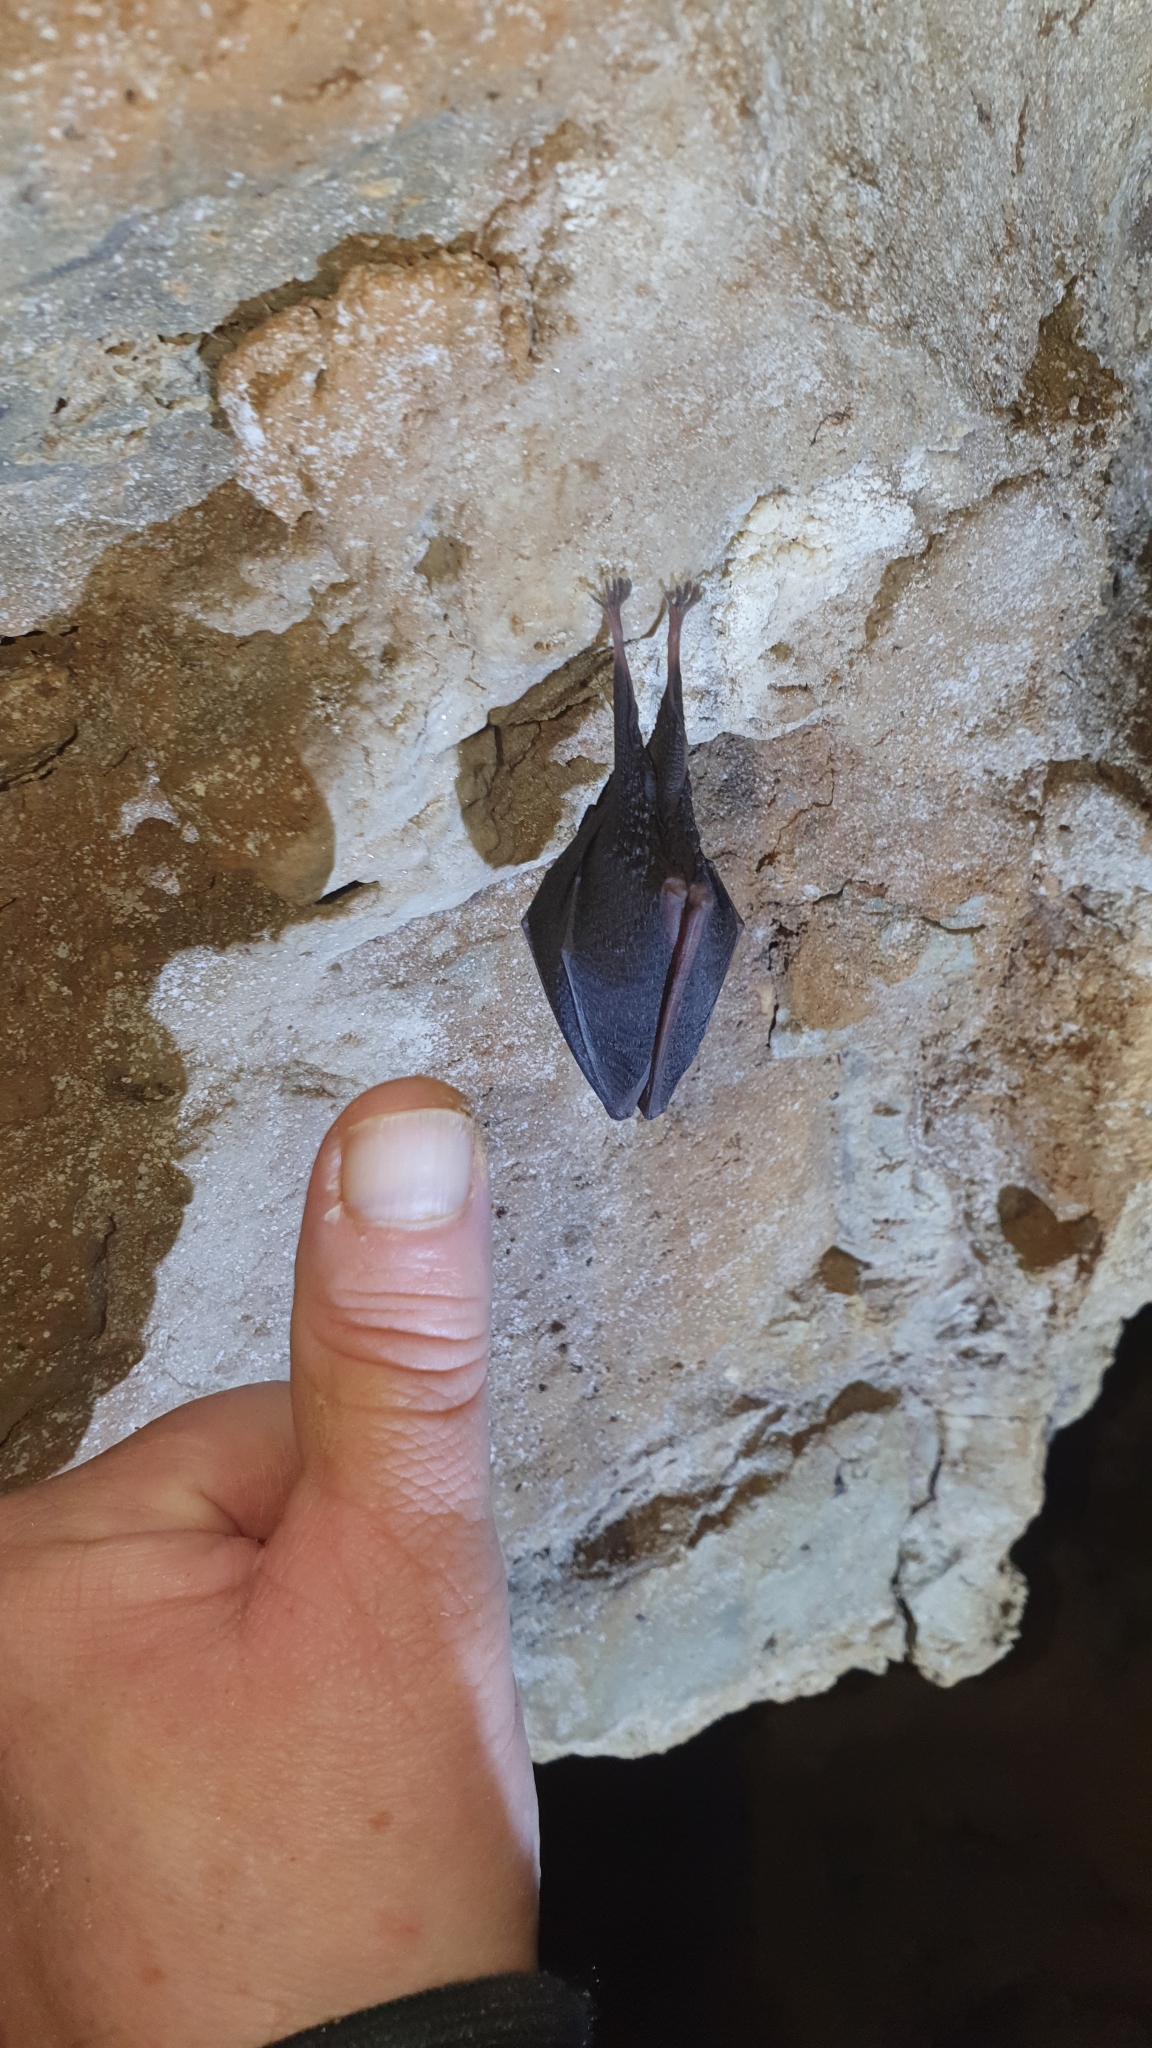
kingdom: Animalia
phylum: Chordata
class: Mammalia
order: Chiroptera
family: Rhinolophidae
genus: Rhinolophus
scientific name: Rhinolophus hipposideros
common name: Lesser horseshoe bat
